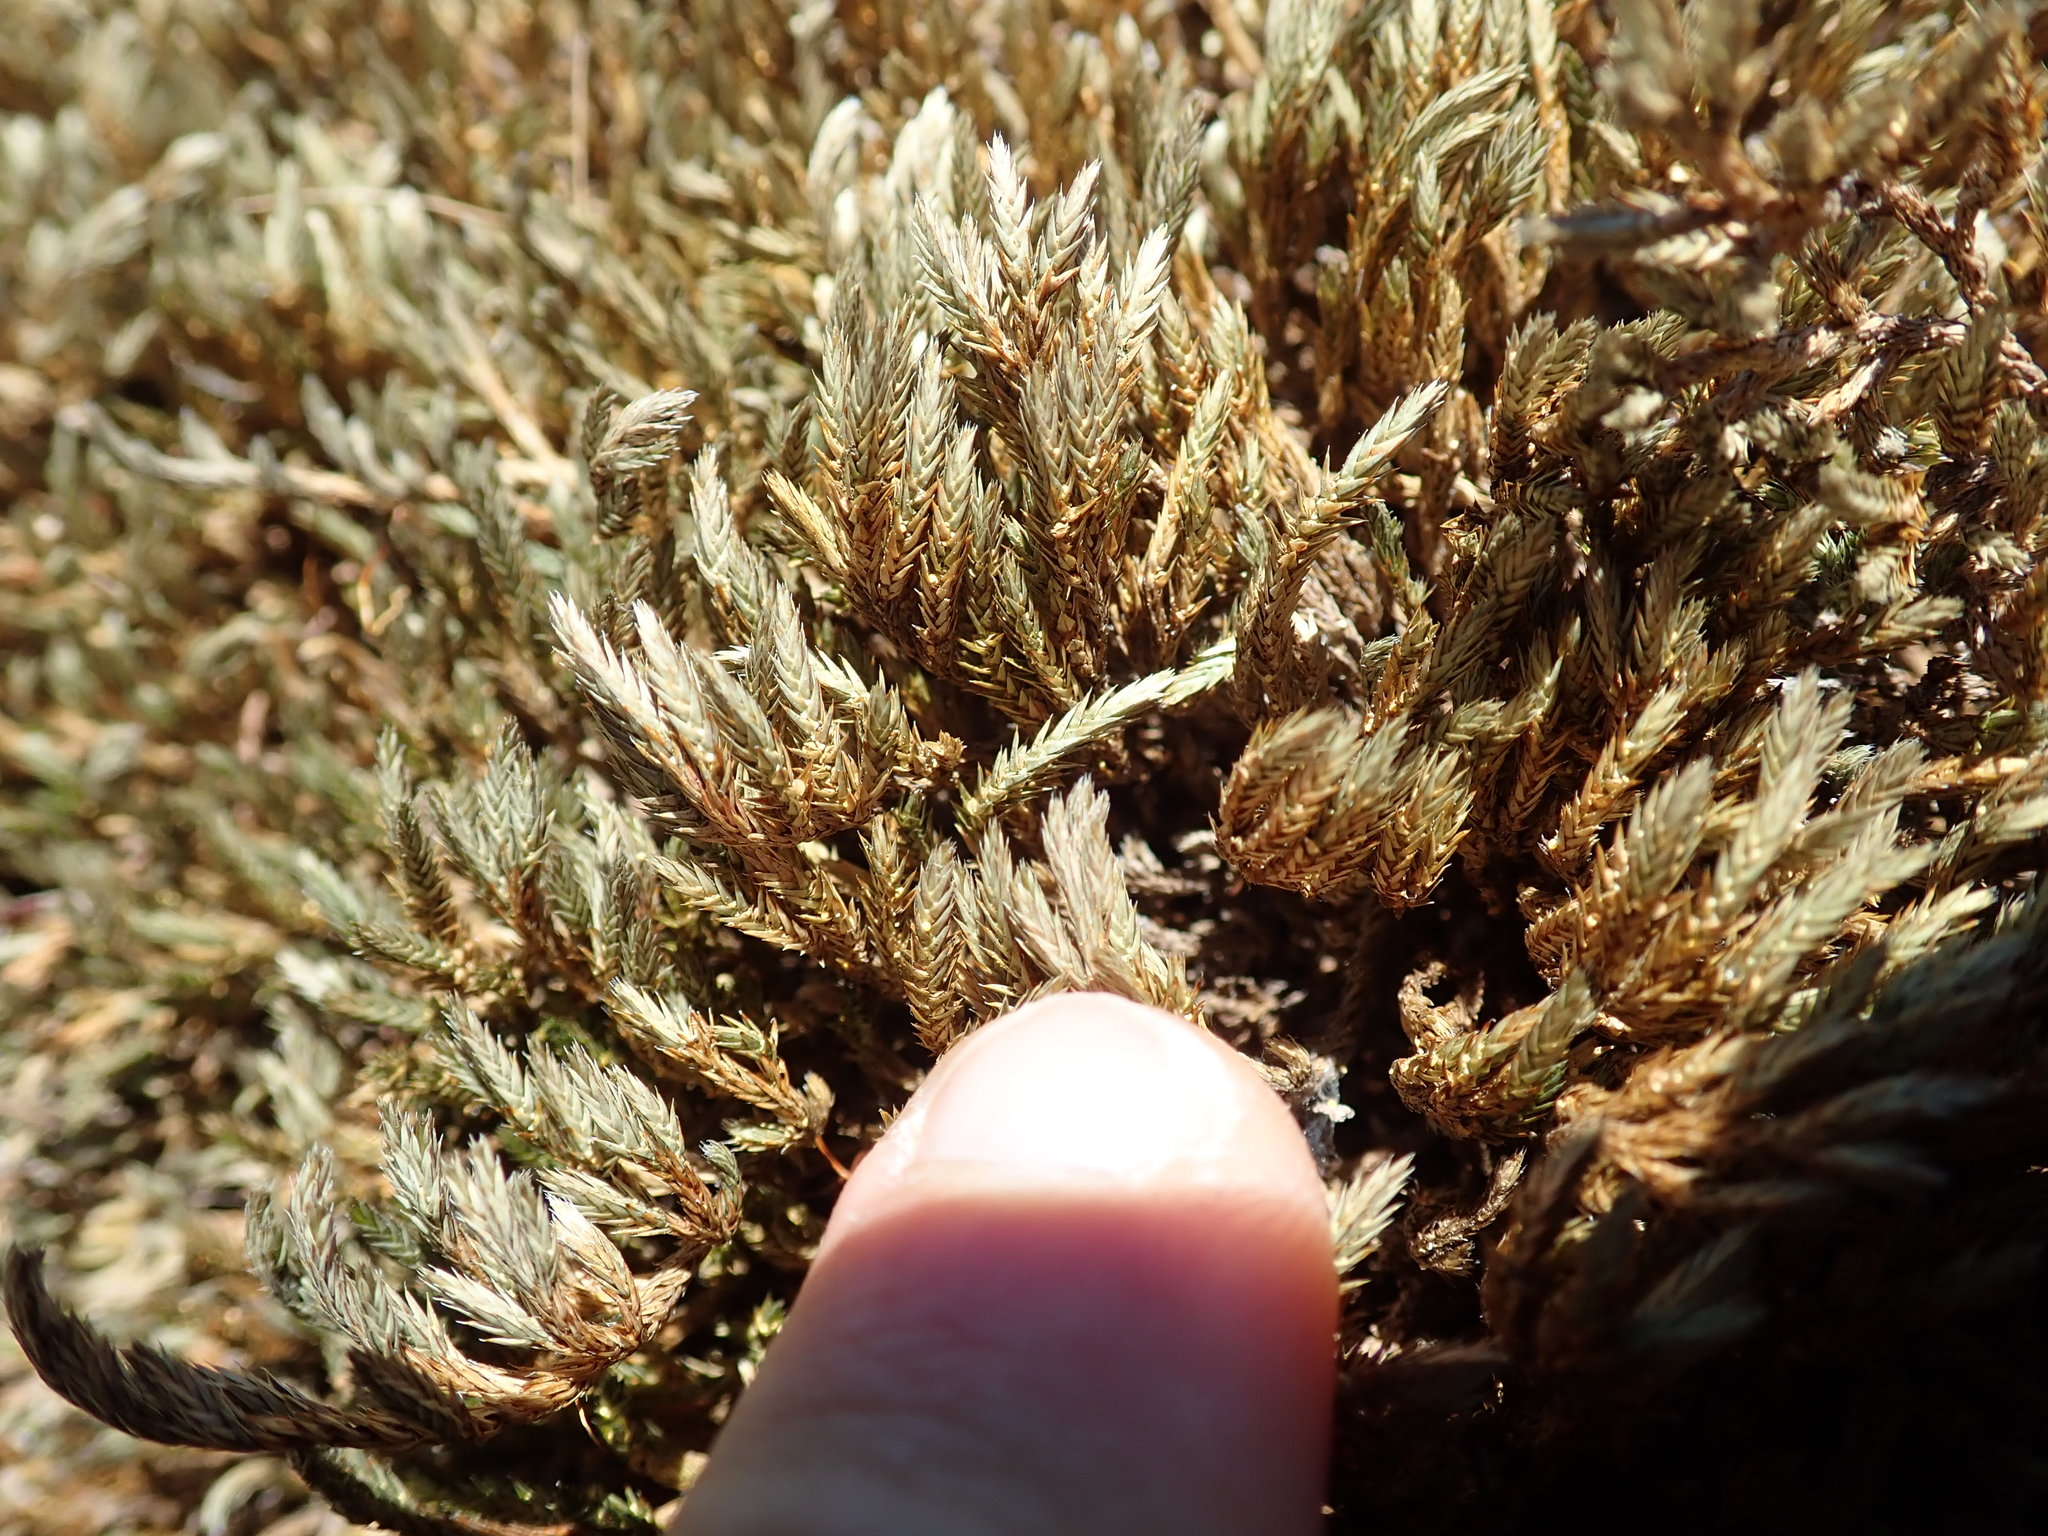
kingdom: Plantae
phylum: Tracheophyta
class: Lycopodiopsida
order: Selaginellales
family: Selaginellaceae
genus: Selaginella
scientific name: Selaginella wallacei
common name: Wallace's selaginella
